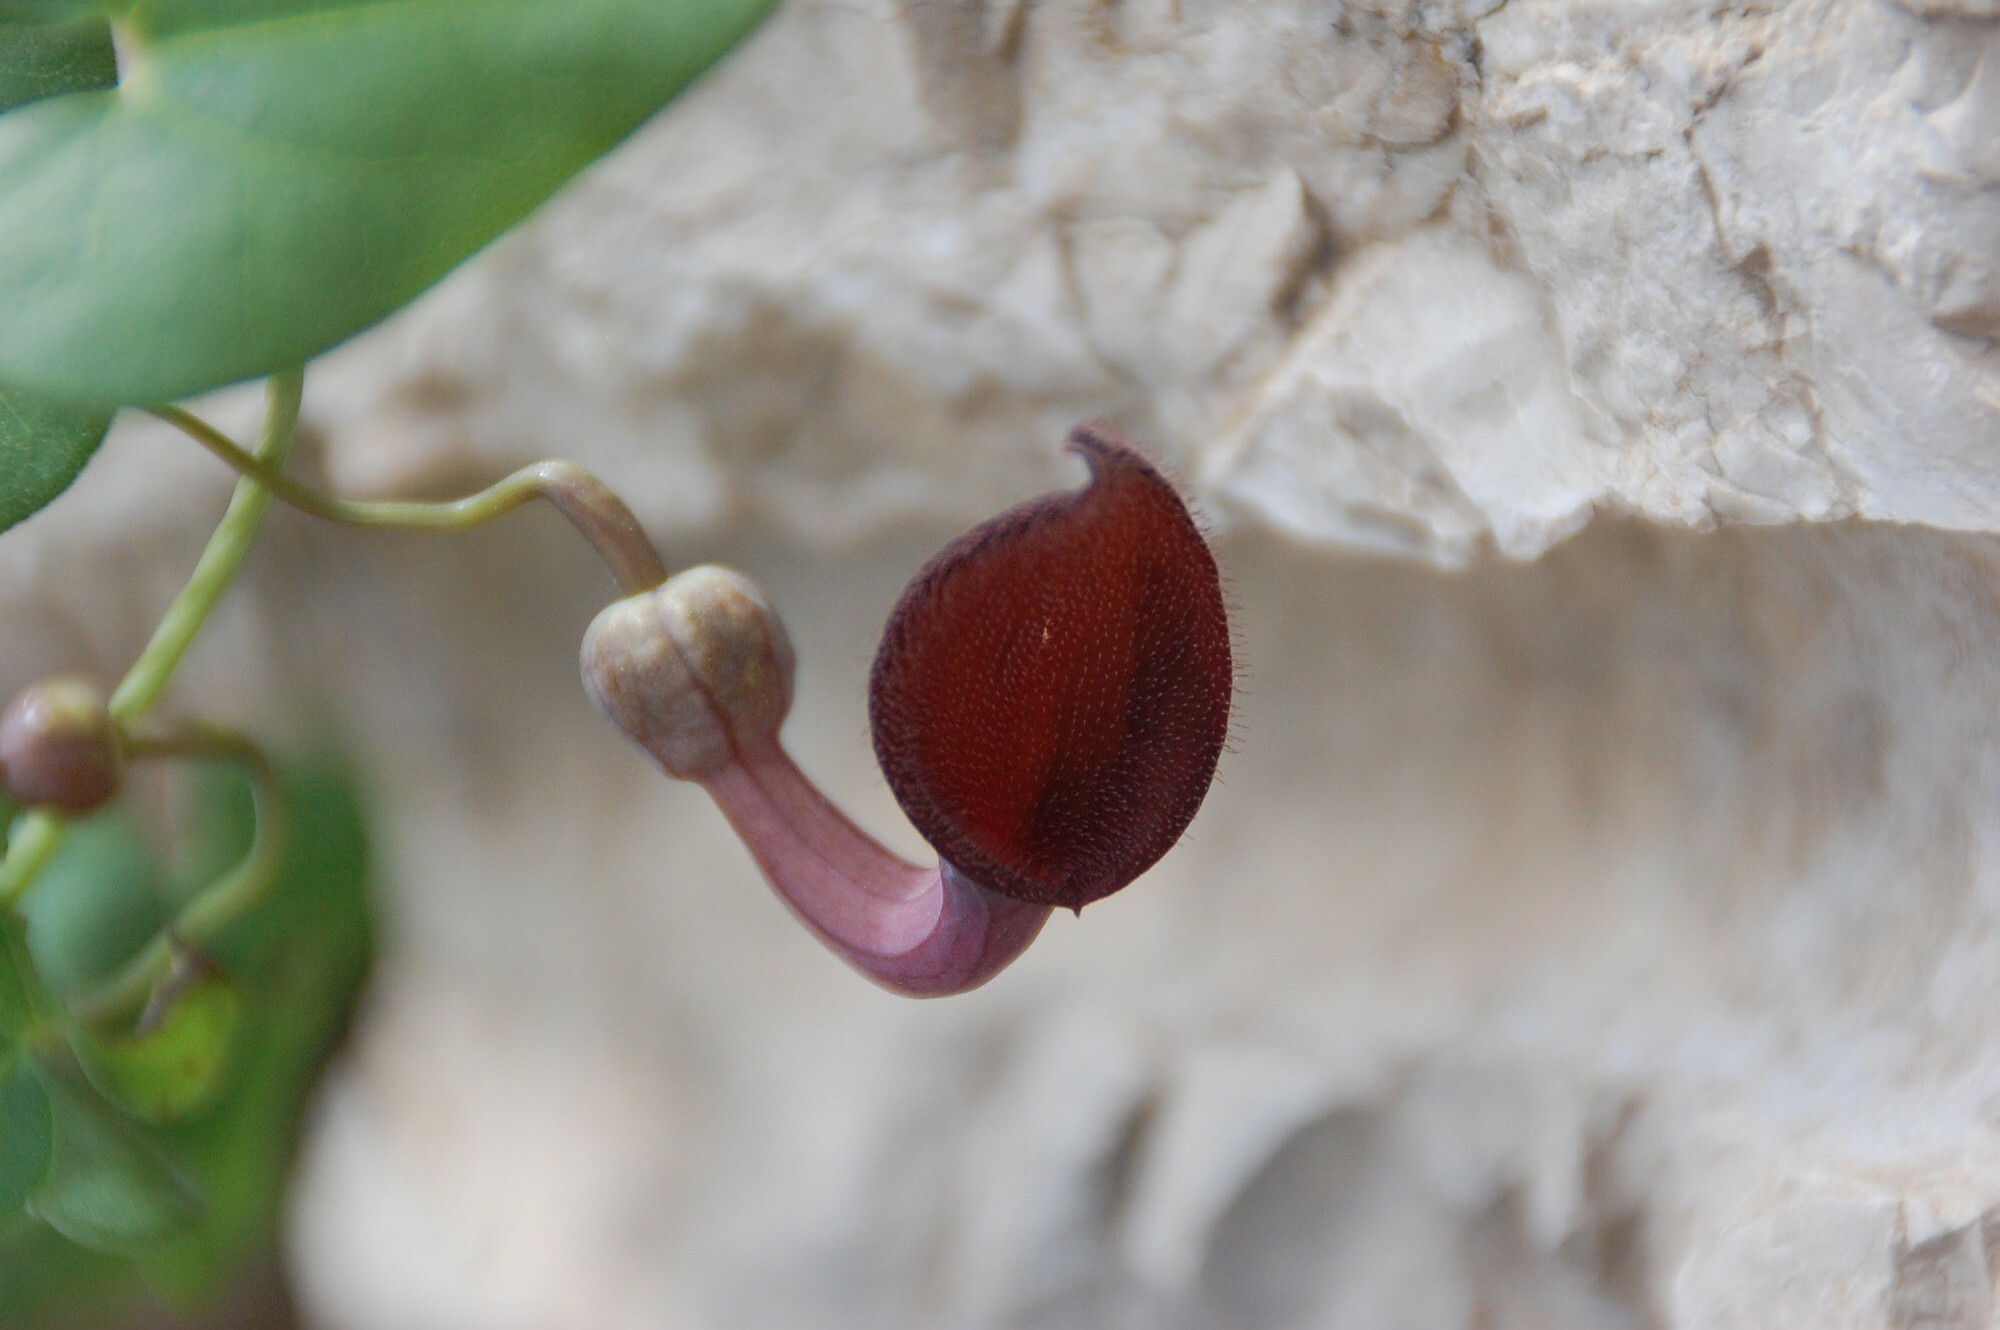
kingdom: Plantae
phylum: Tracheophyta
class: Magnoliopsida
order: Piperales
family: Aristolochiaceae
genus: Aristolochia
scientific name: Aristolochia baetica
